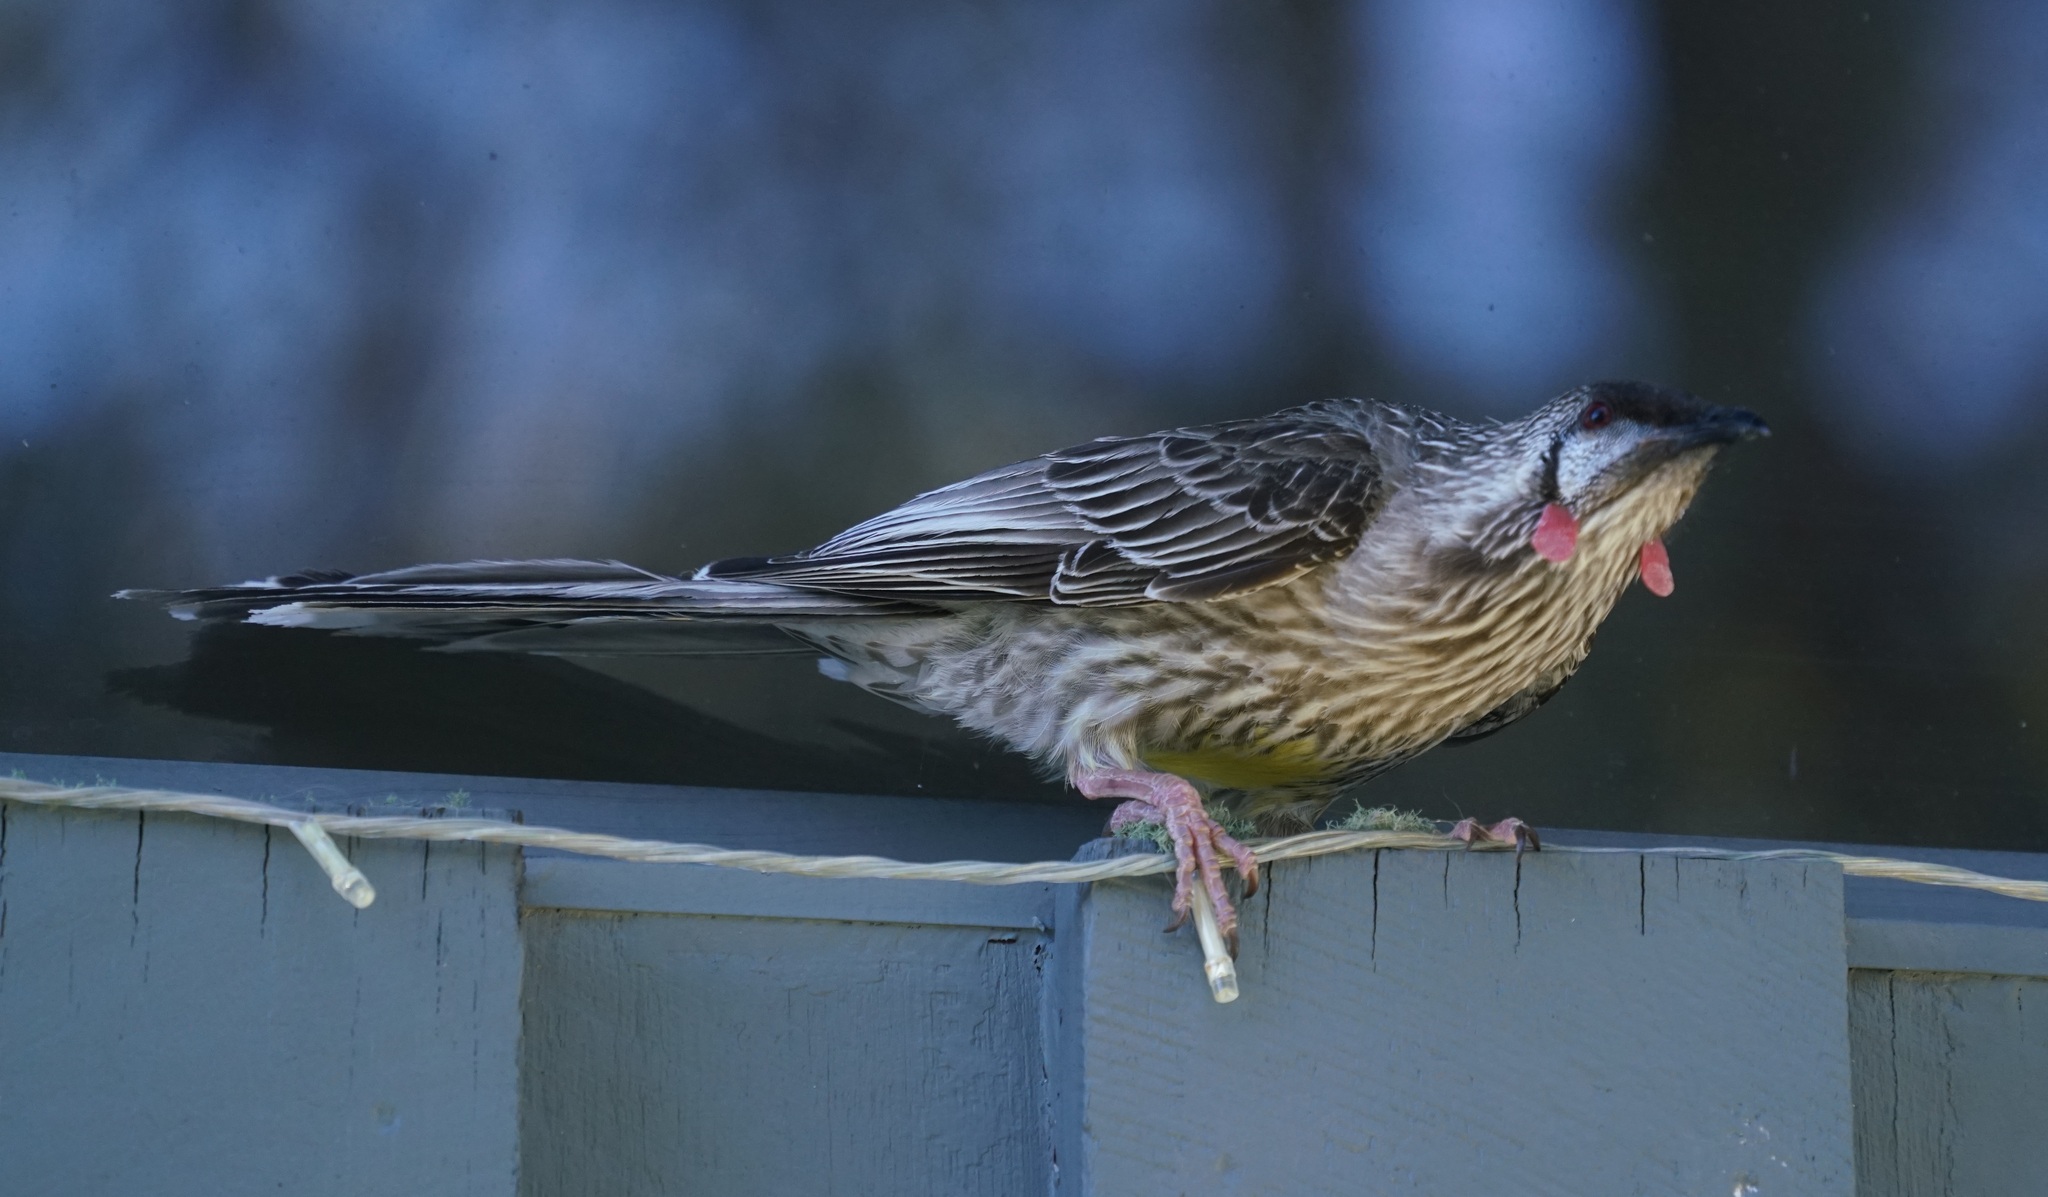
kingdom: Animalia
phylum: Chordata
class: Aves
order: Passeriformes
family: Meliphagidae
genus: Anthochaera
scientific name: Anthochaera carunculata
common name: Red wattlebird
